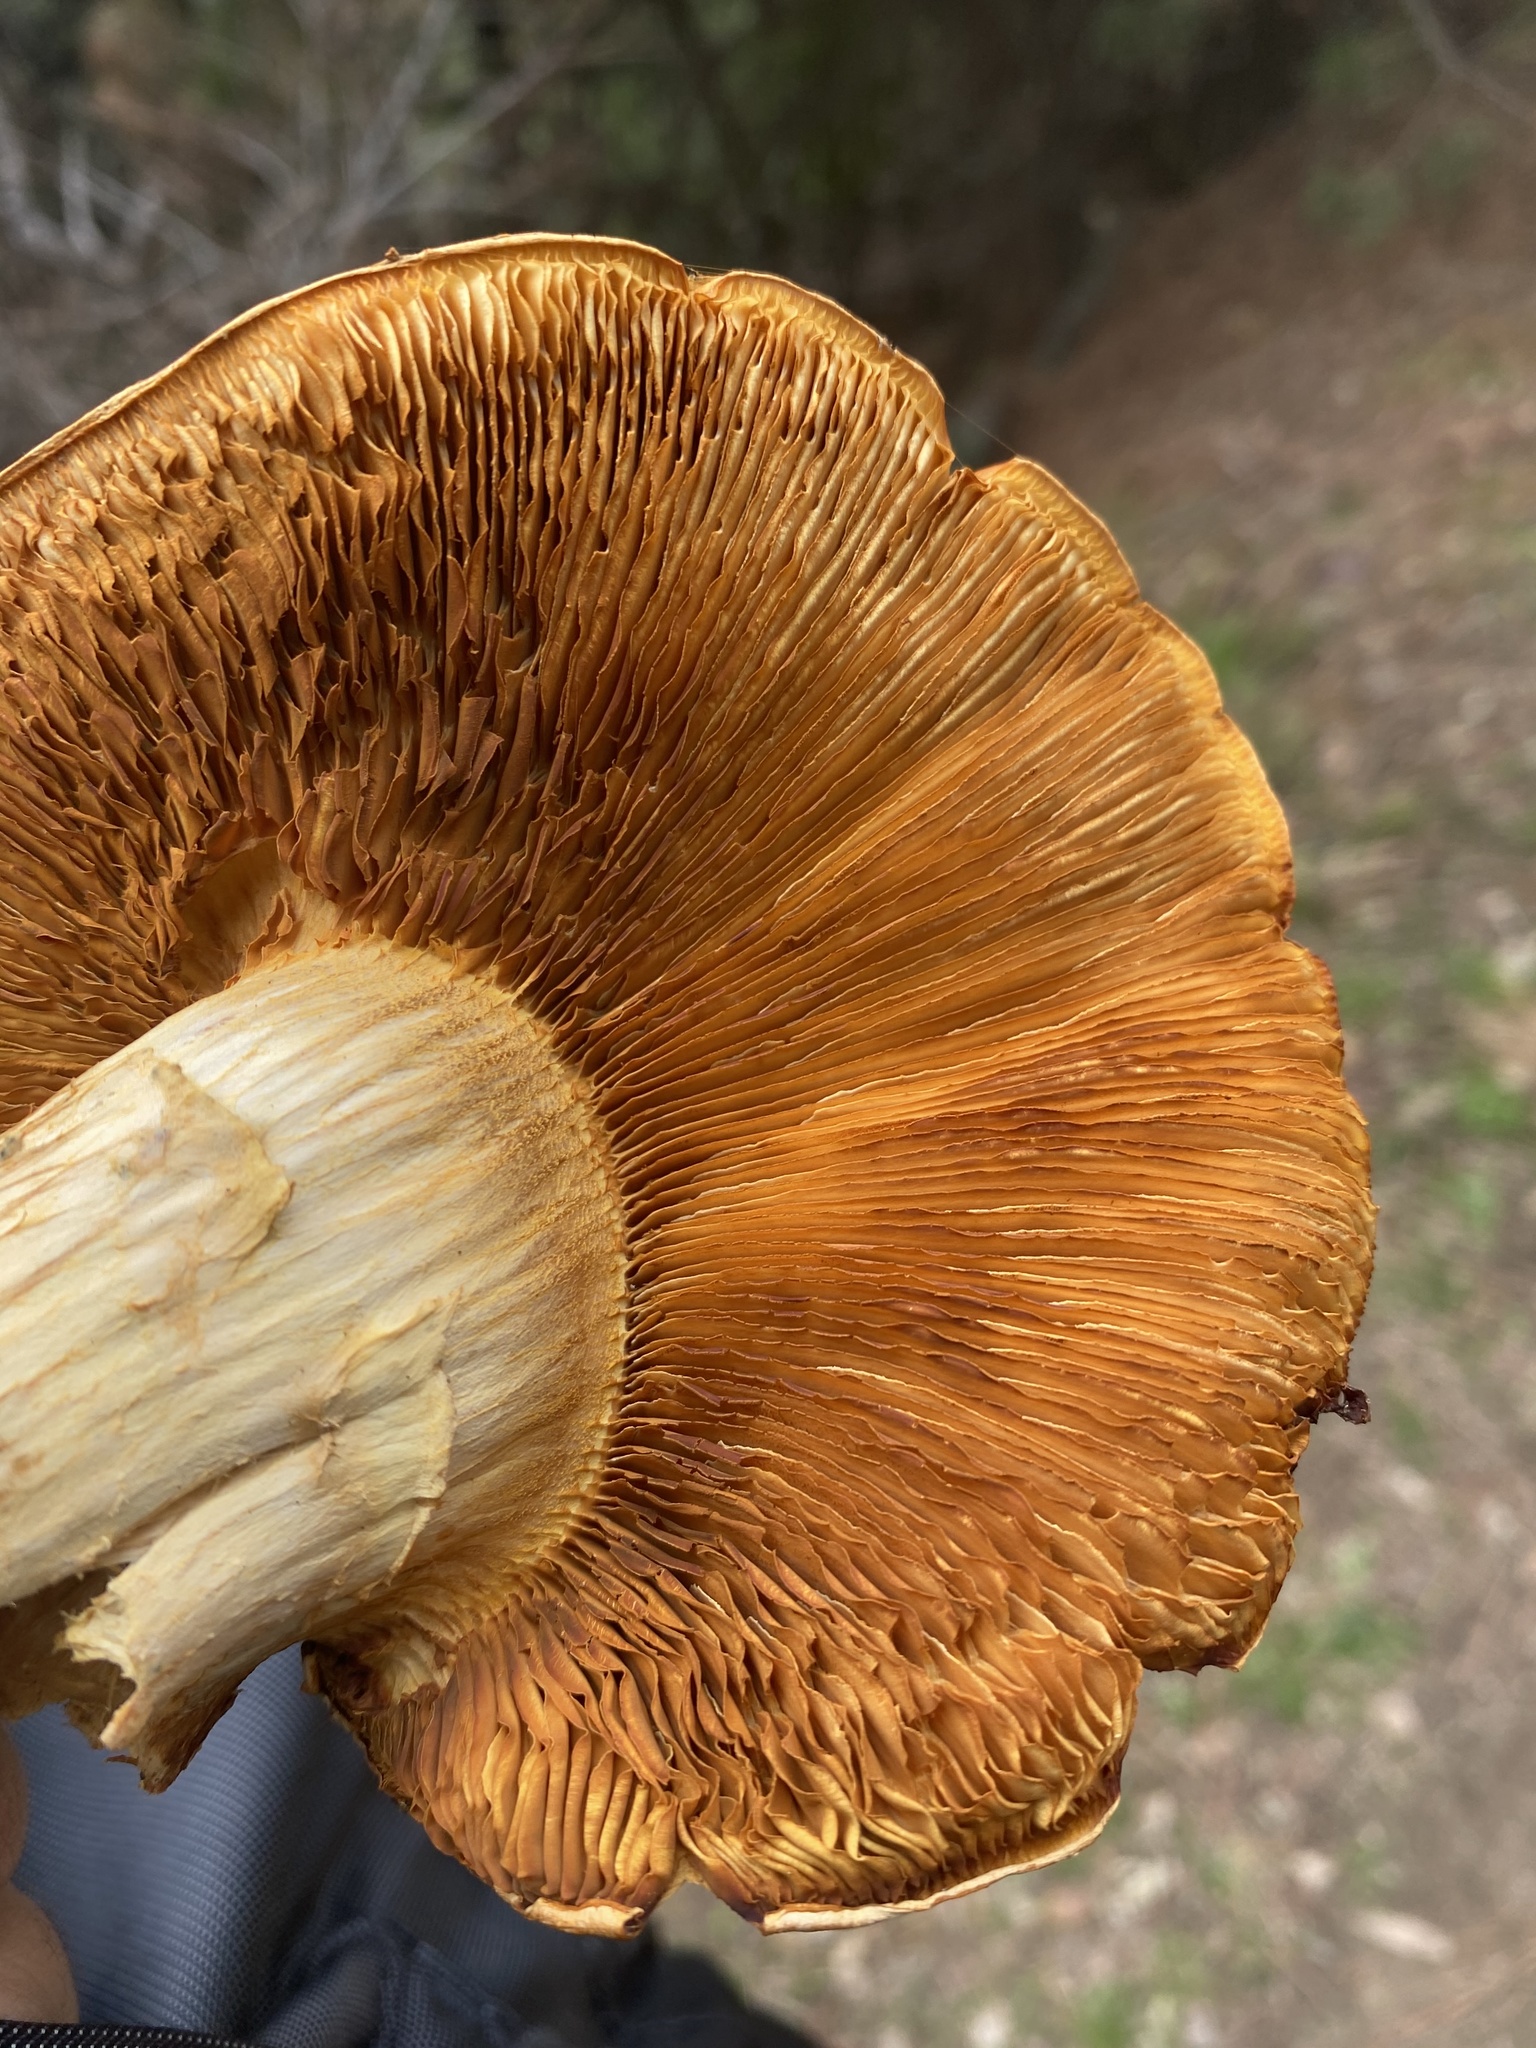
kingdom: Fungi
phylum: Basidiomycota
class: Agaricomycetes
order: Agaricales
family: Hymenogastraceae
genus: Gymnopilus
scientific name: Gymnopilus ventricosus
